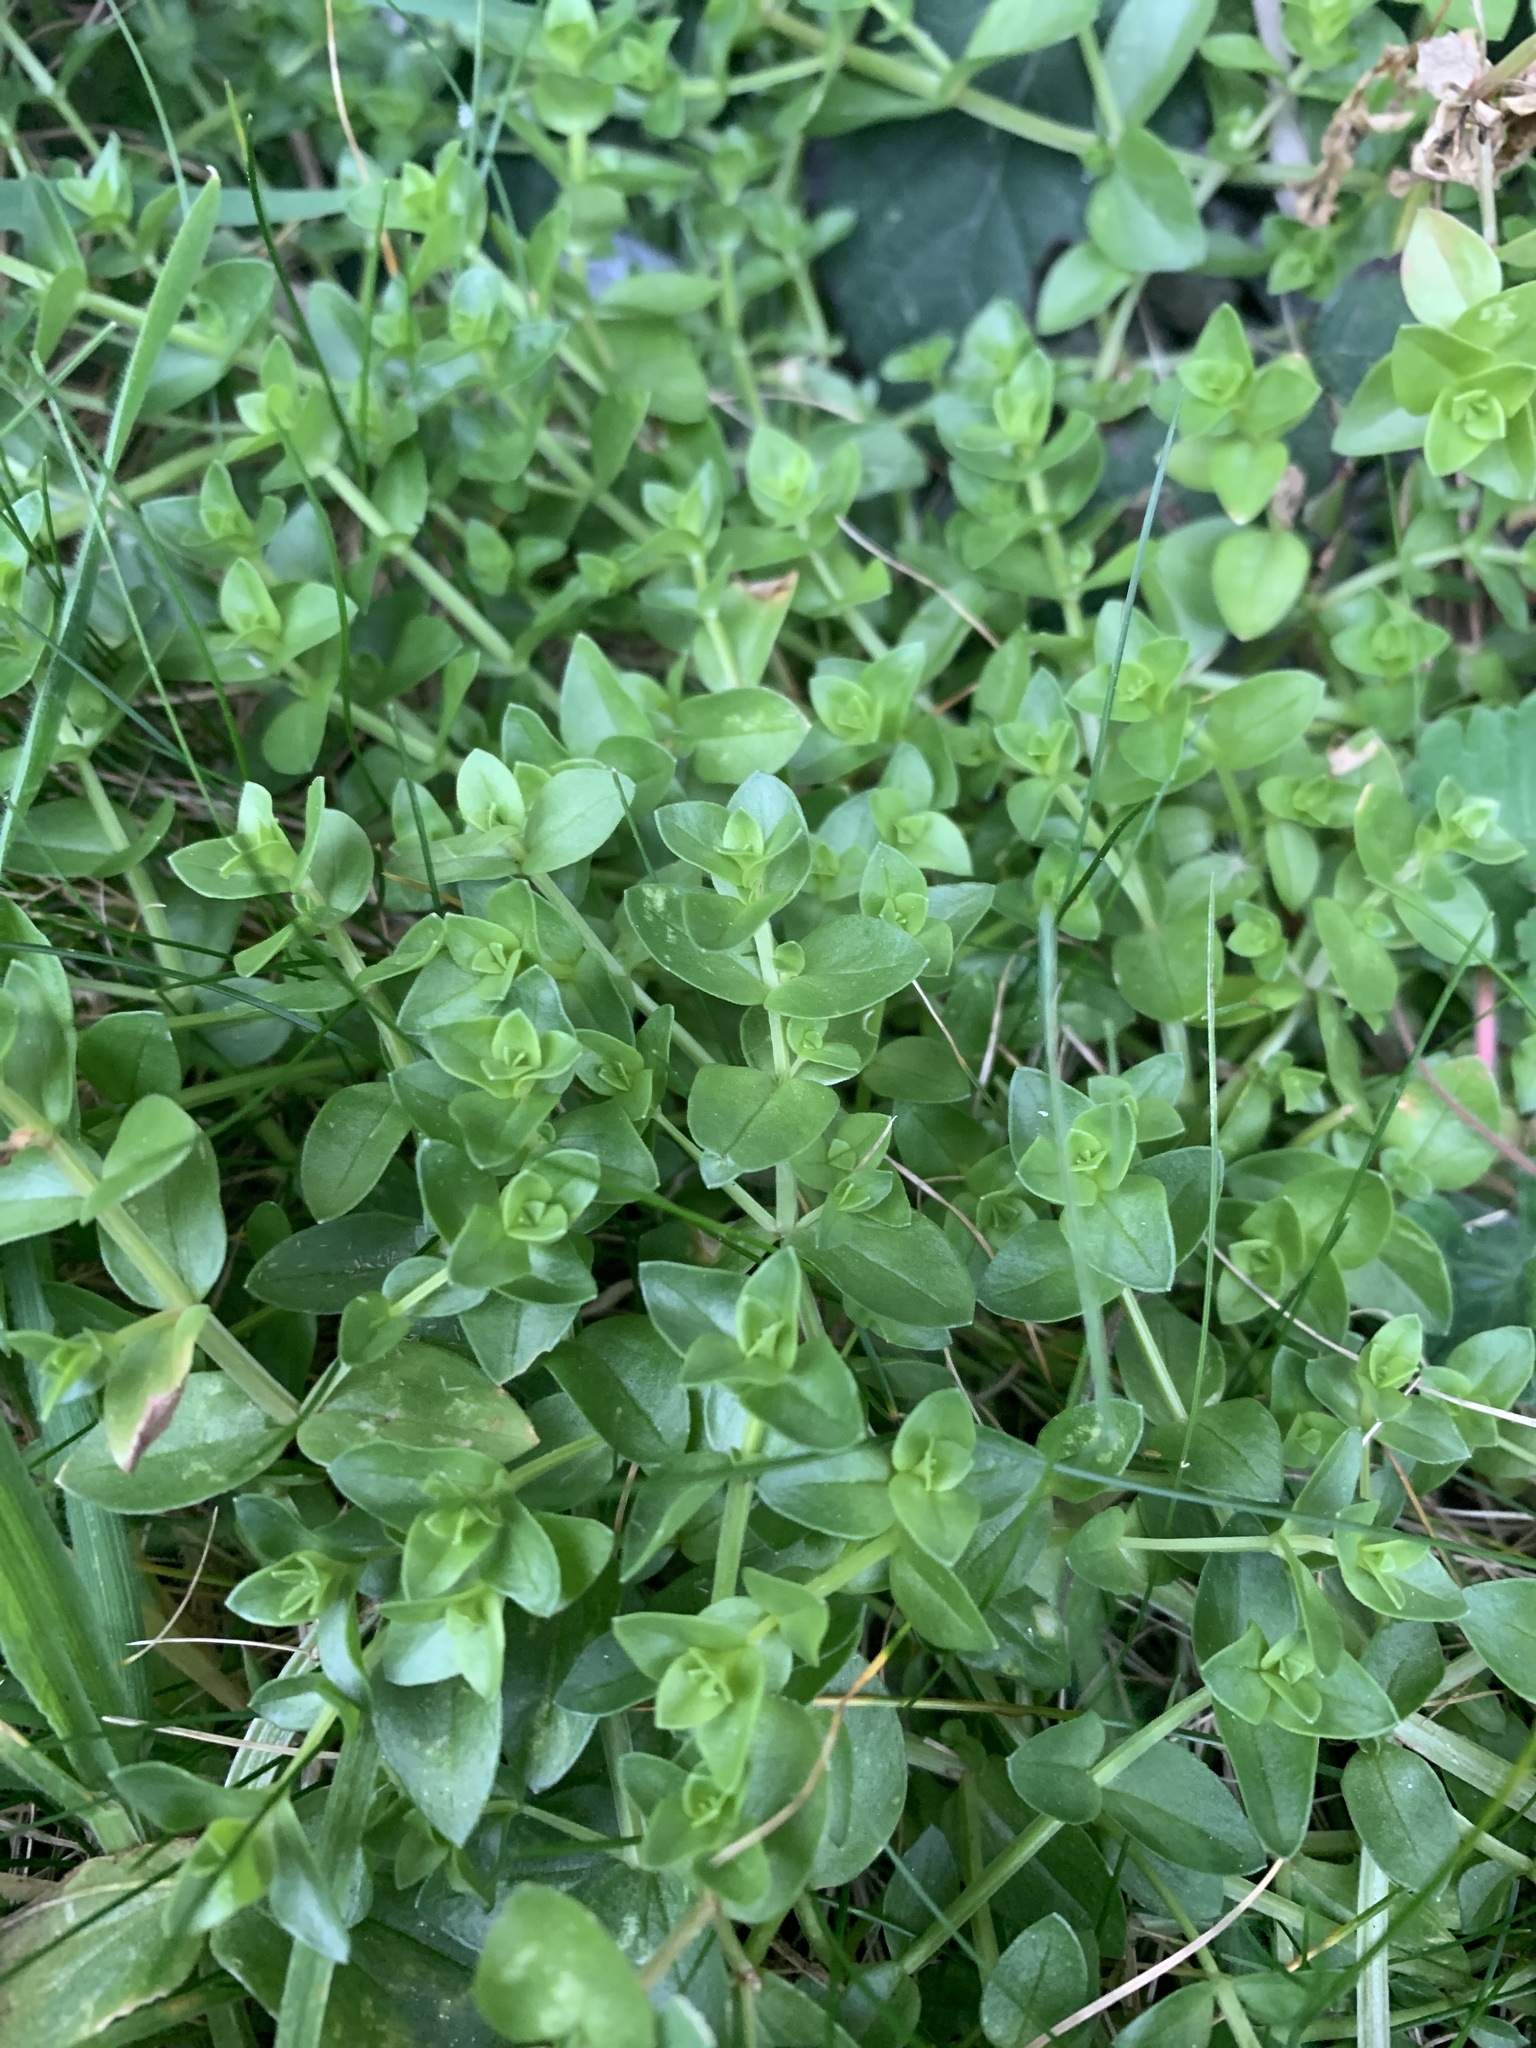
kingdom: Plantae
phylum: Tracheophyta
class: Magnoliopsida
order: Ericales
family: Primulaceae
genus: Lysimachia
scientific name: Lysimachia arvensis
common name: Scarlet pimpernel
